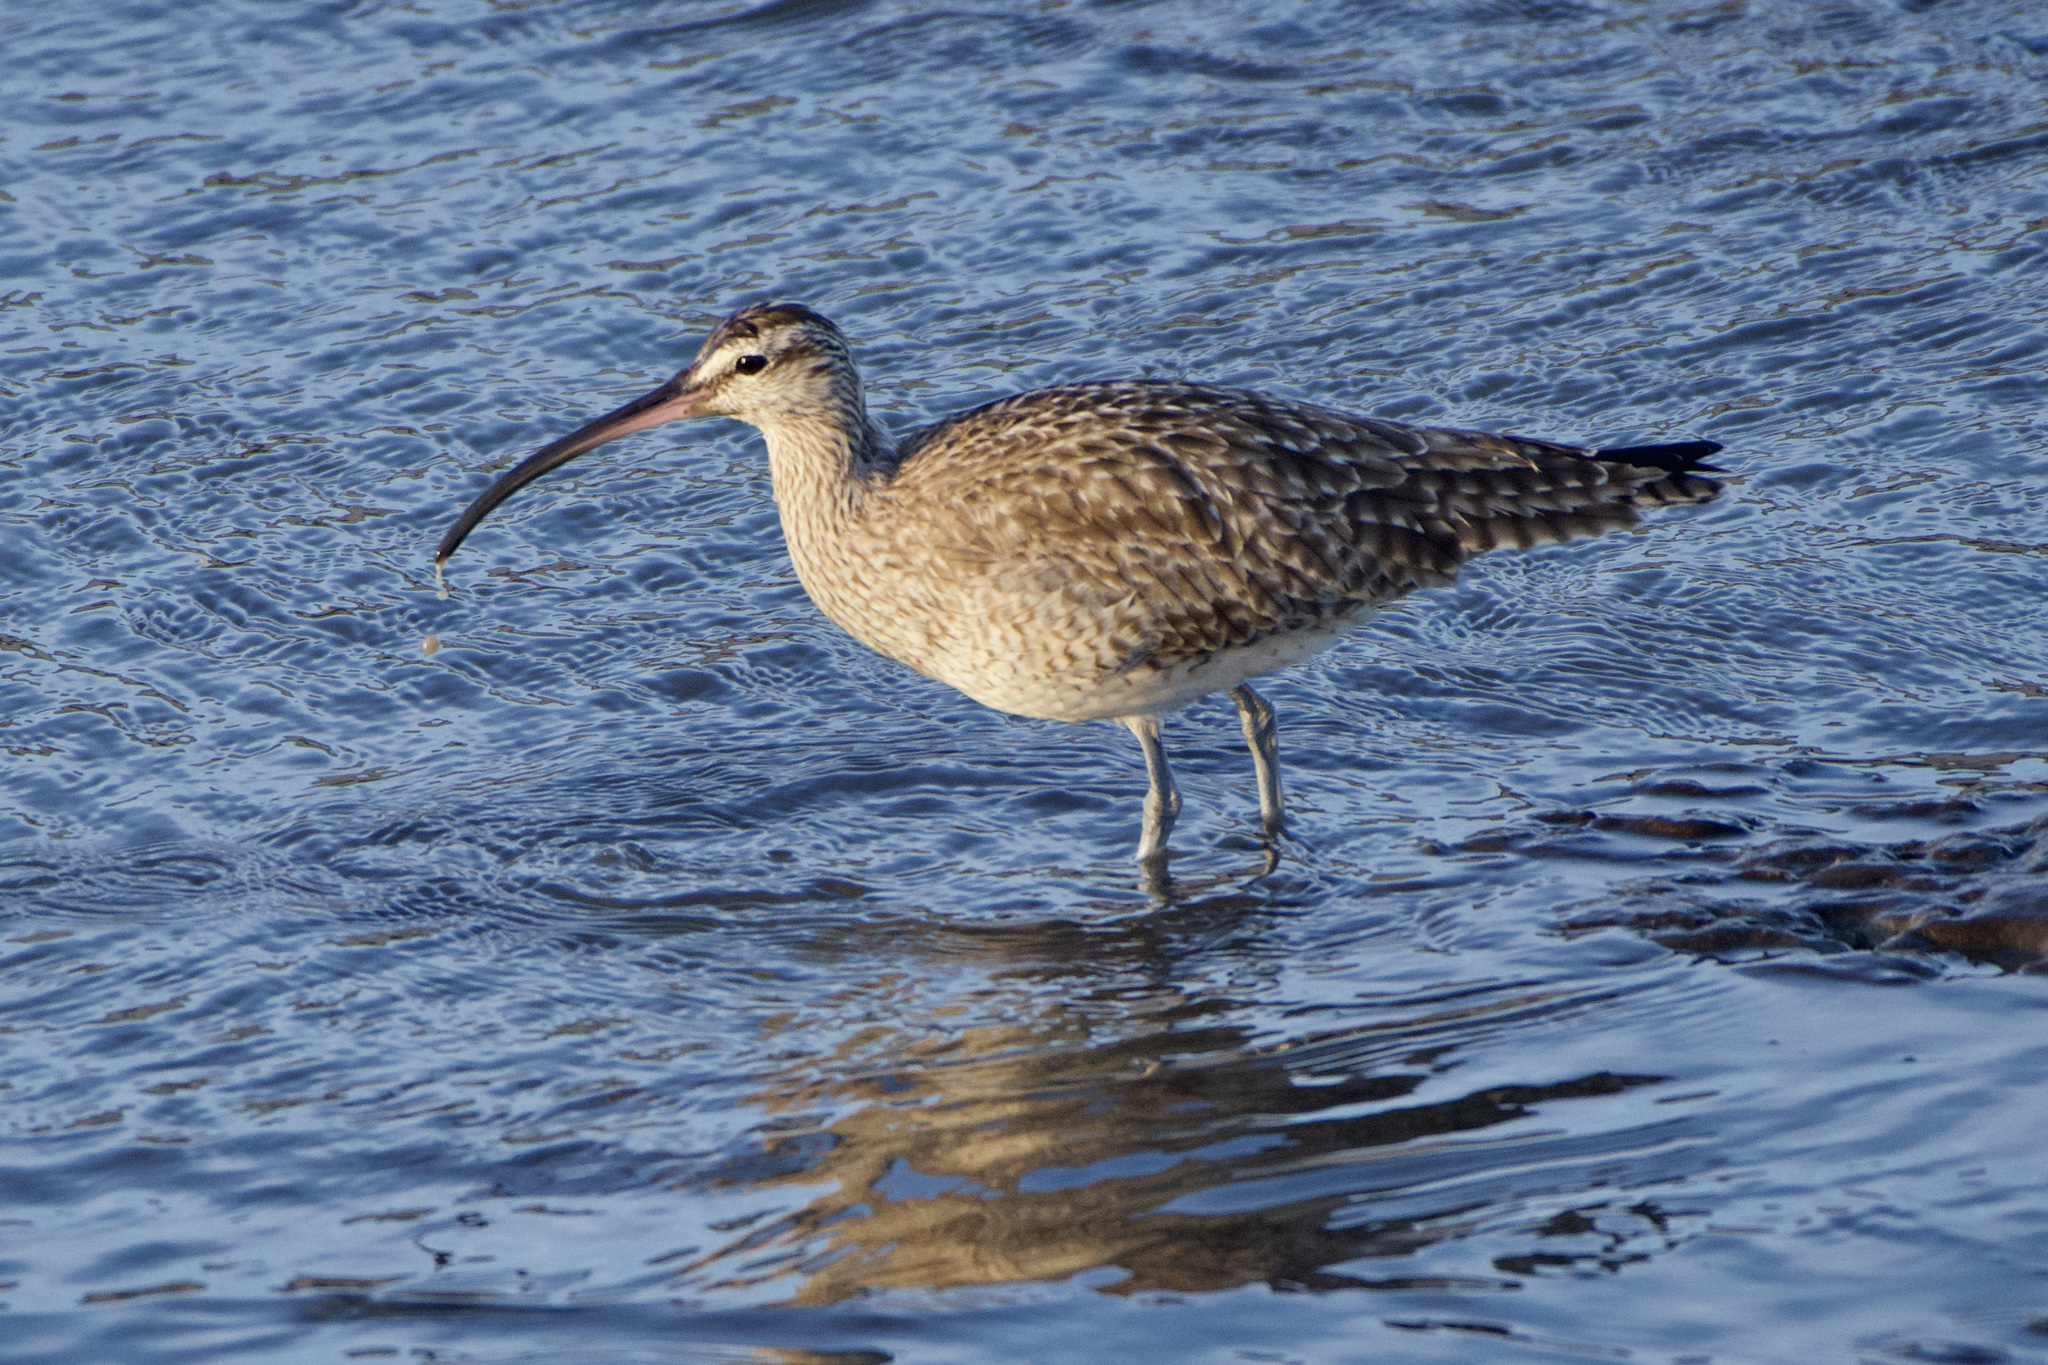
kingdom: Animalia
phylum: Chordata
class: Aves
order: Charadriiformes
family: Scolopacidae
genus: Numenius
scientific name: Numenius phaeopus
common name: Whimbrel
